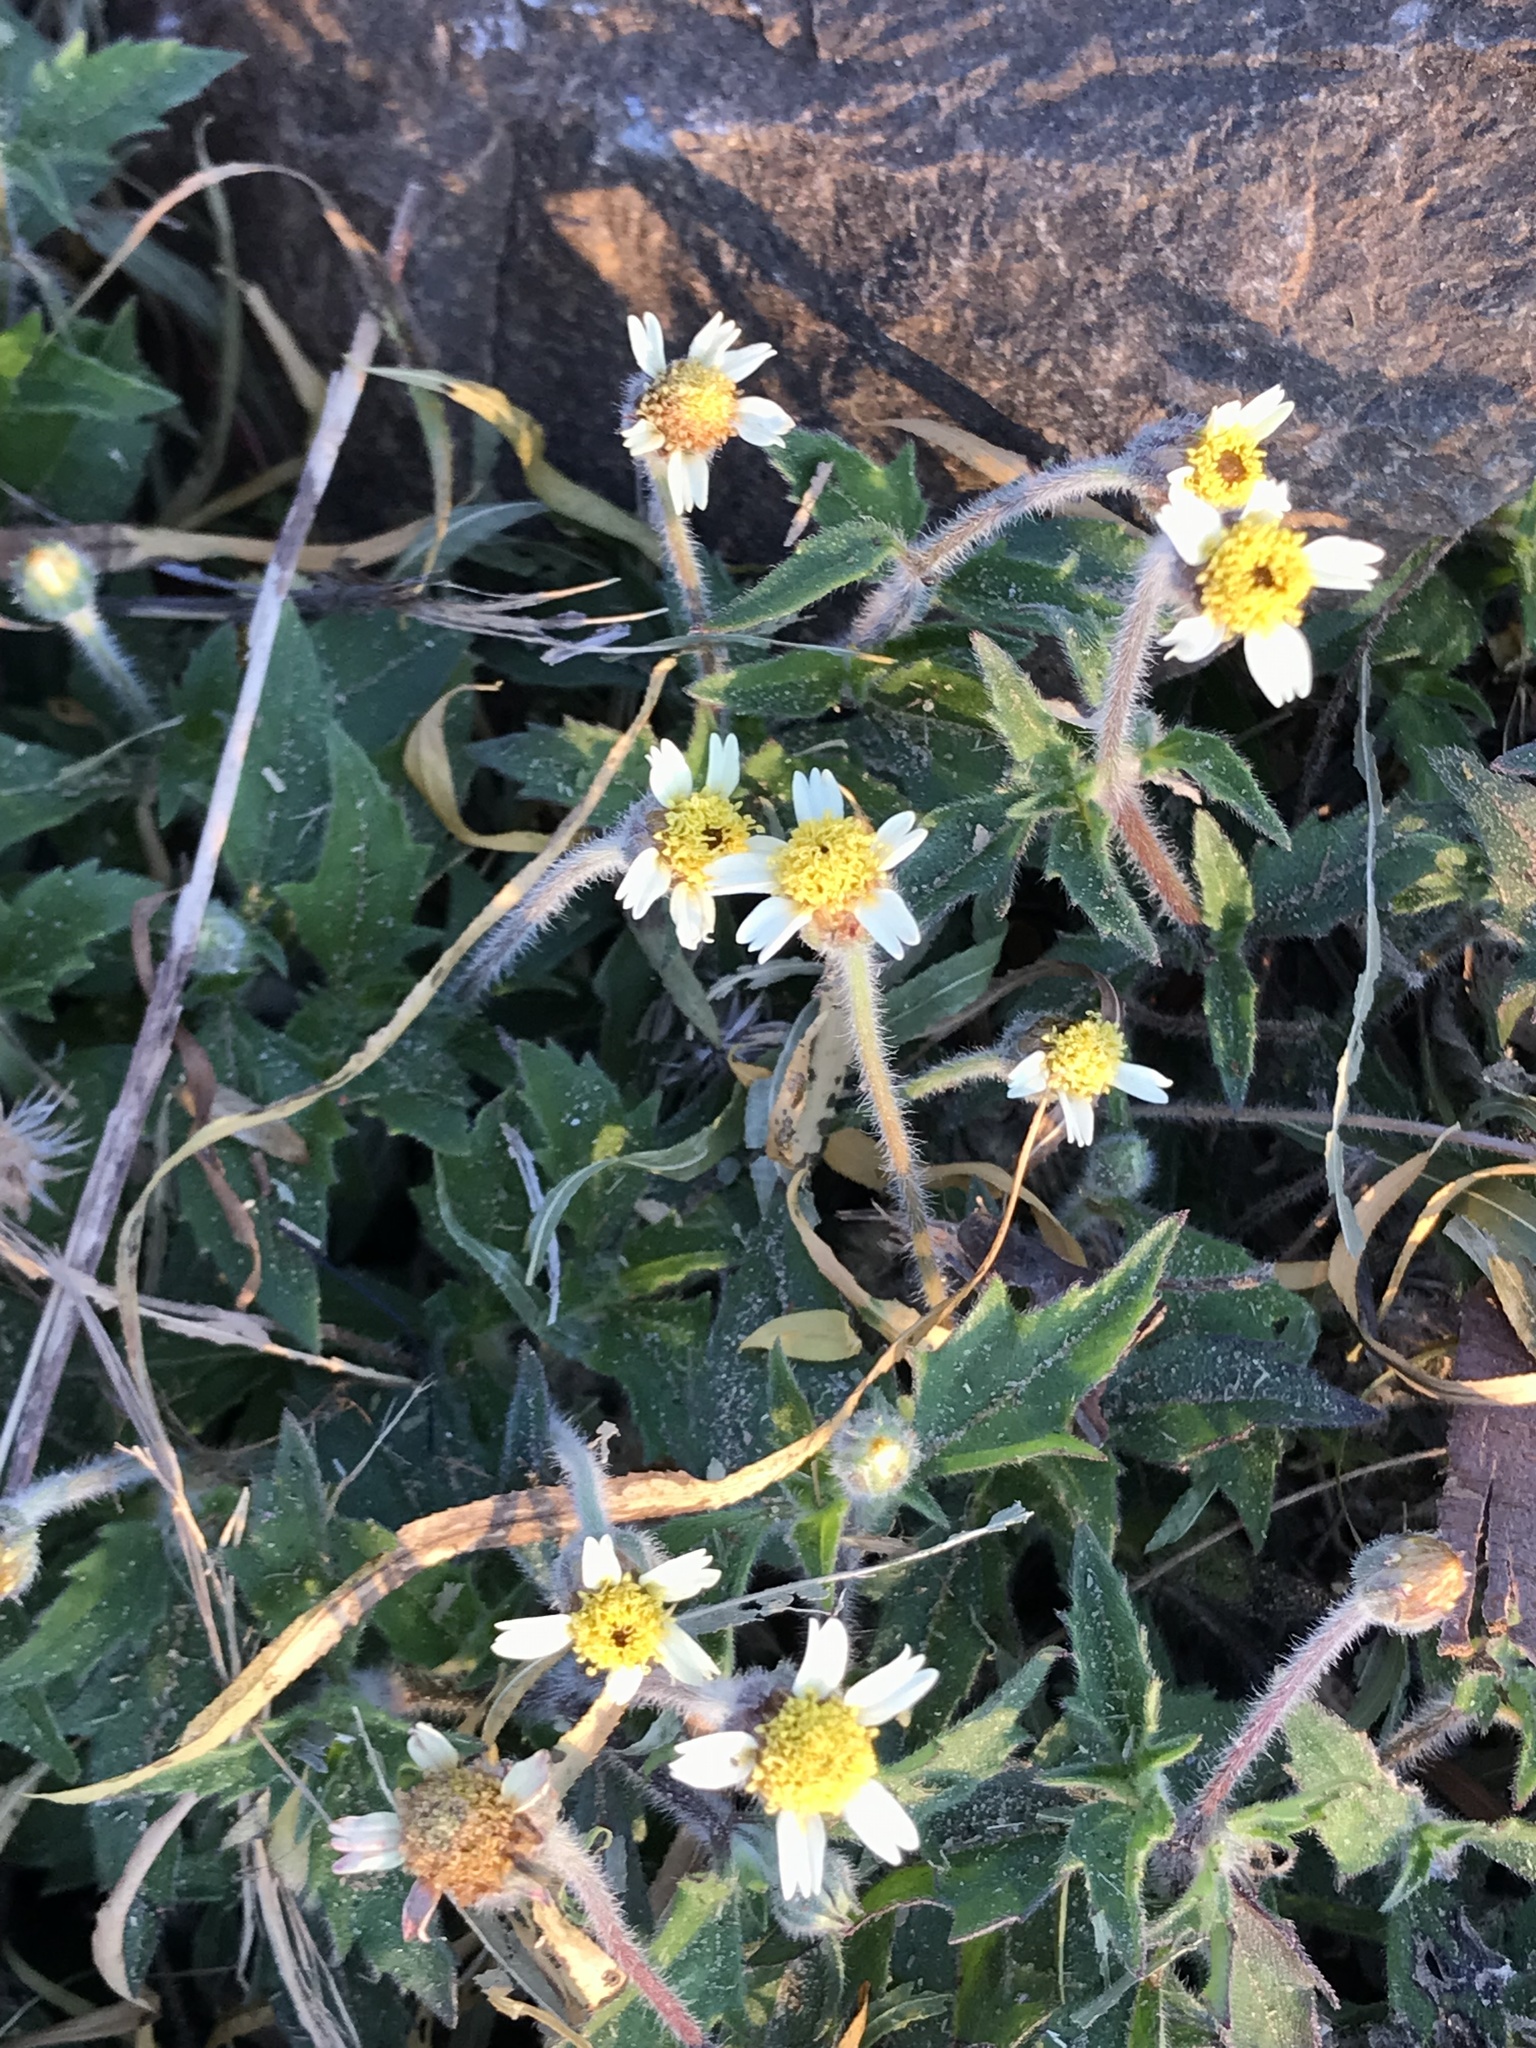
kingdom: Plantae
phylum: Tracheophyta
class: Magnoliopsida
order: Asterales
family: Asteraceae
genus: Tridax
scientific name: Tridax procumbens
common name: Coatbuttons
